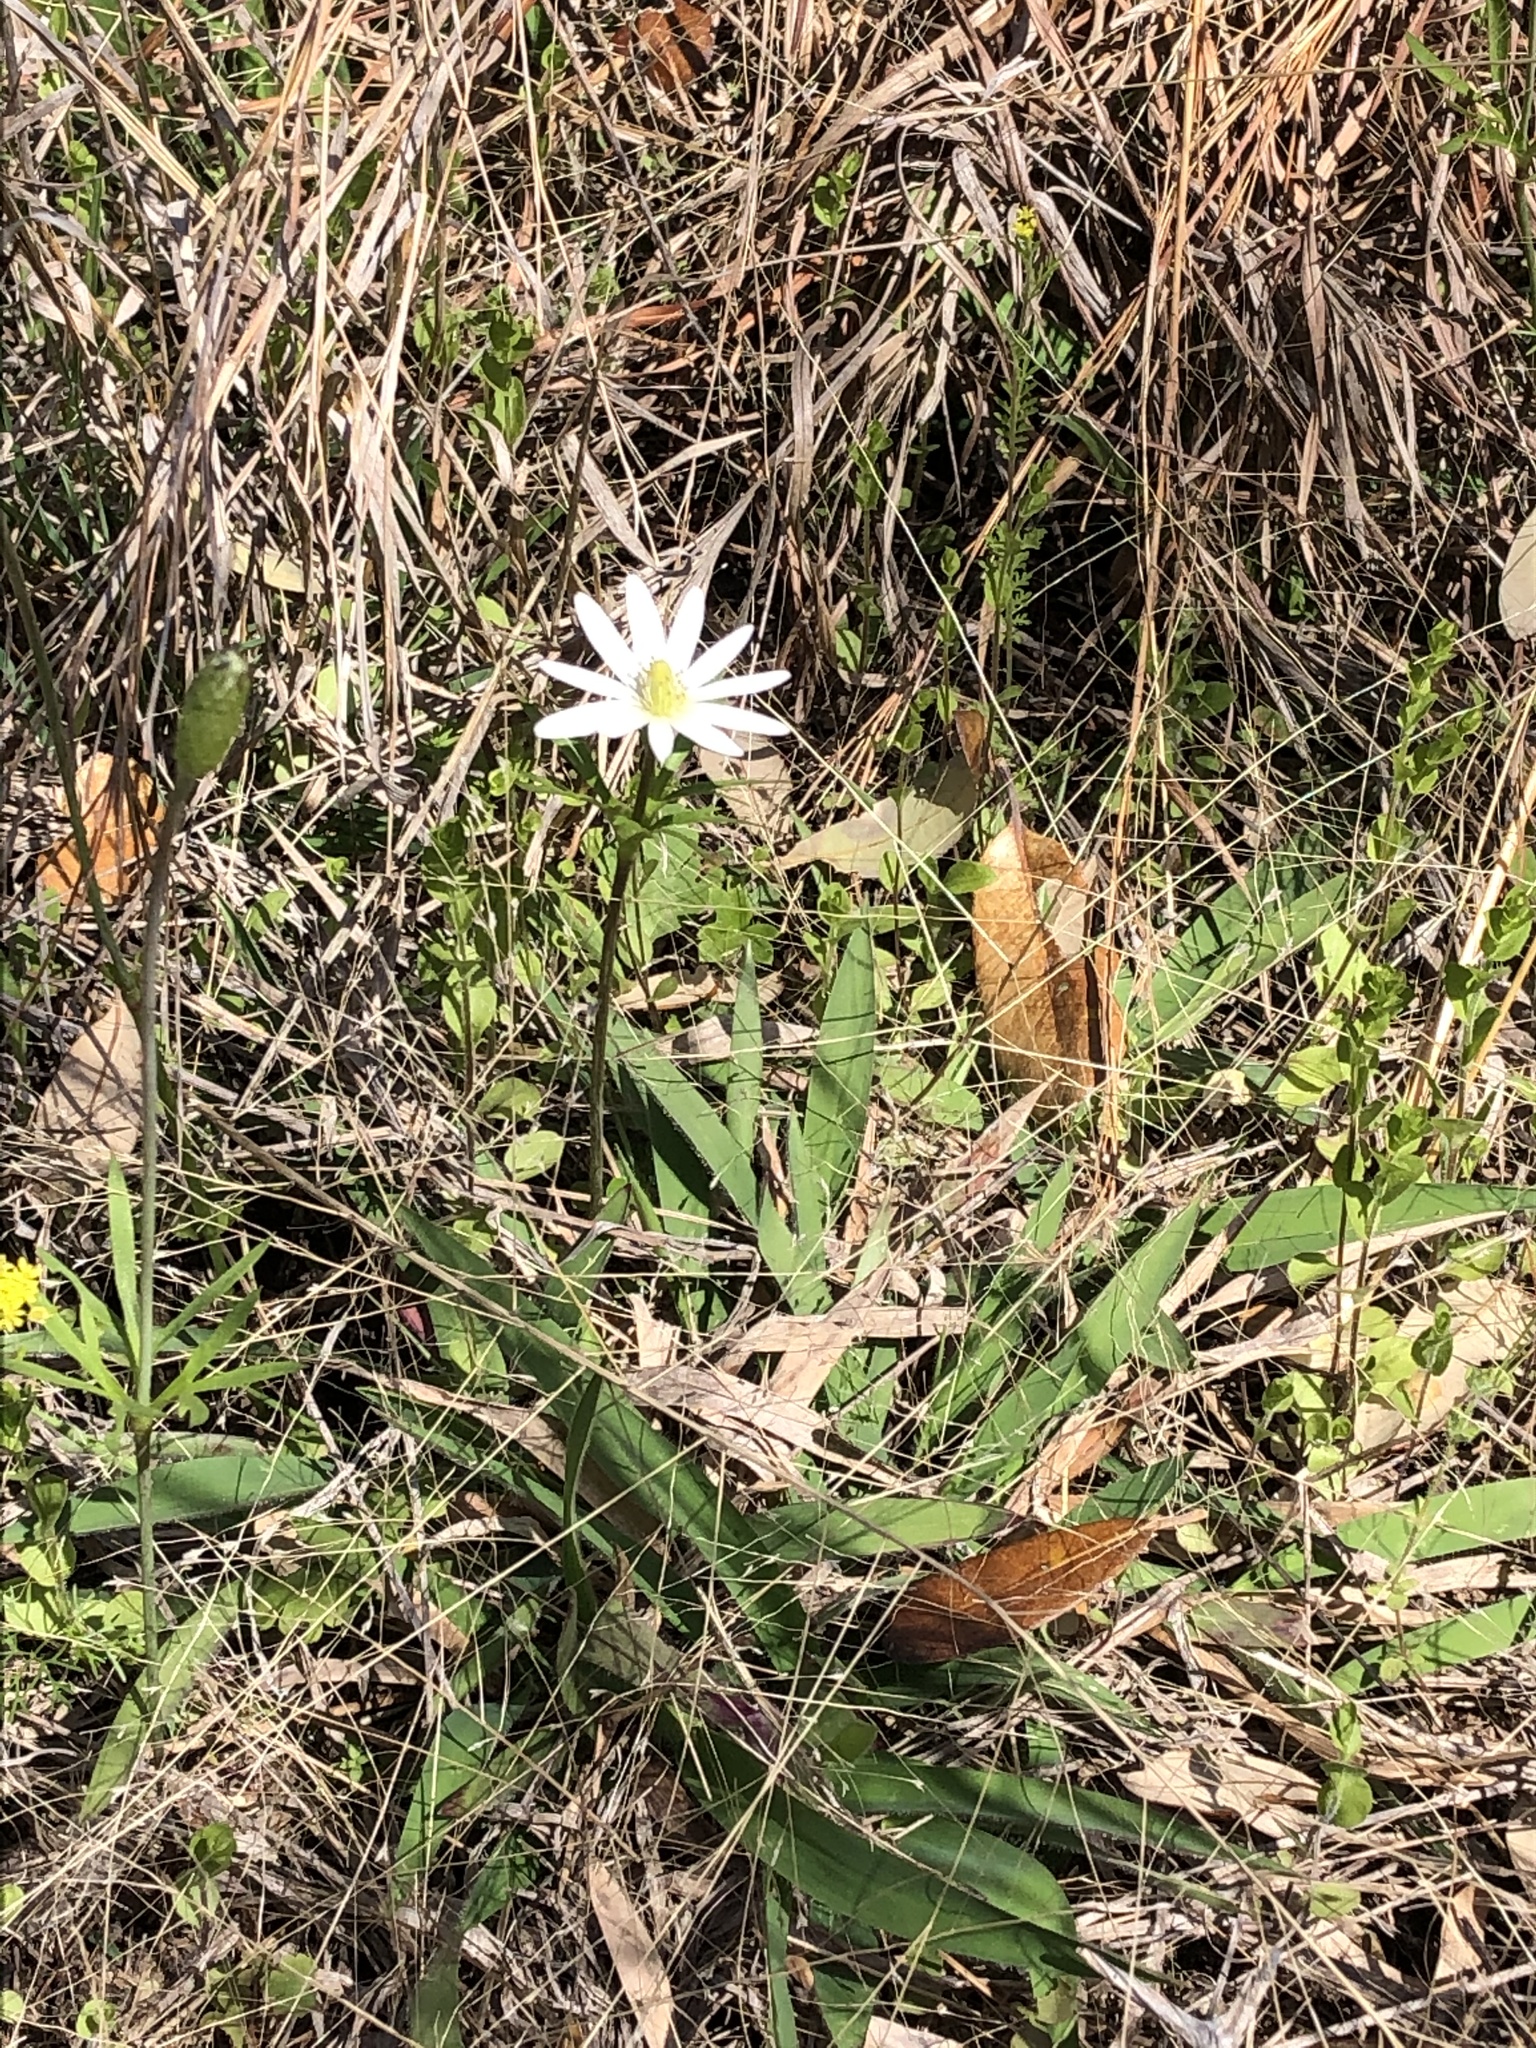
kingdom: Plantae
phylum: Tracheophyta
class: Magnoliopsida
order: Ranunculales
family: Ranunculaceae
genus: Anemone
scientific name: Anemone berlandieri
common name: Ten-petal anemone
